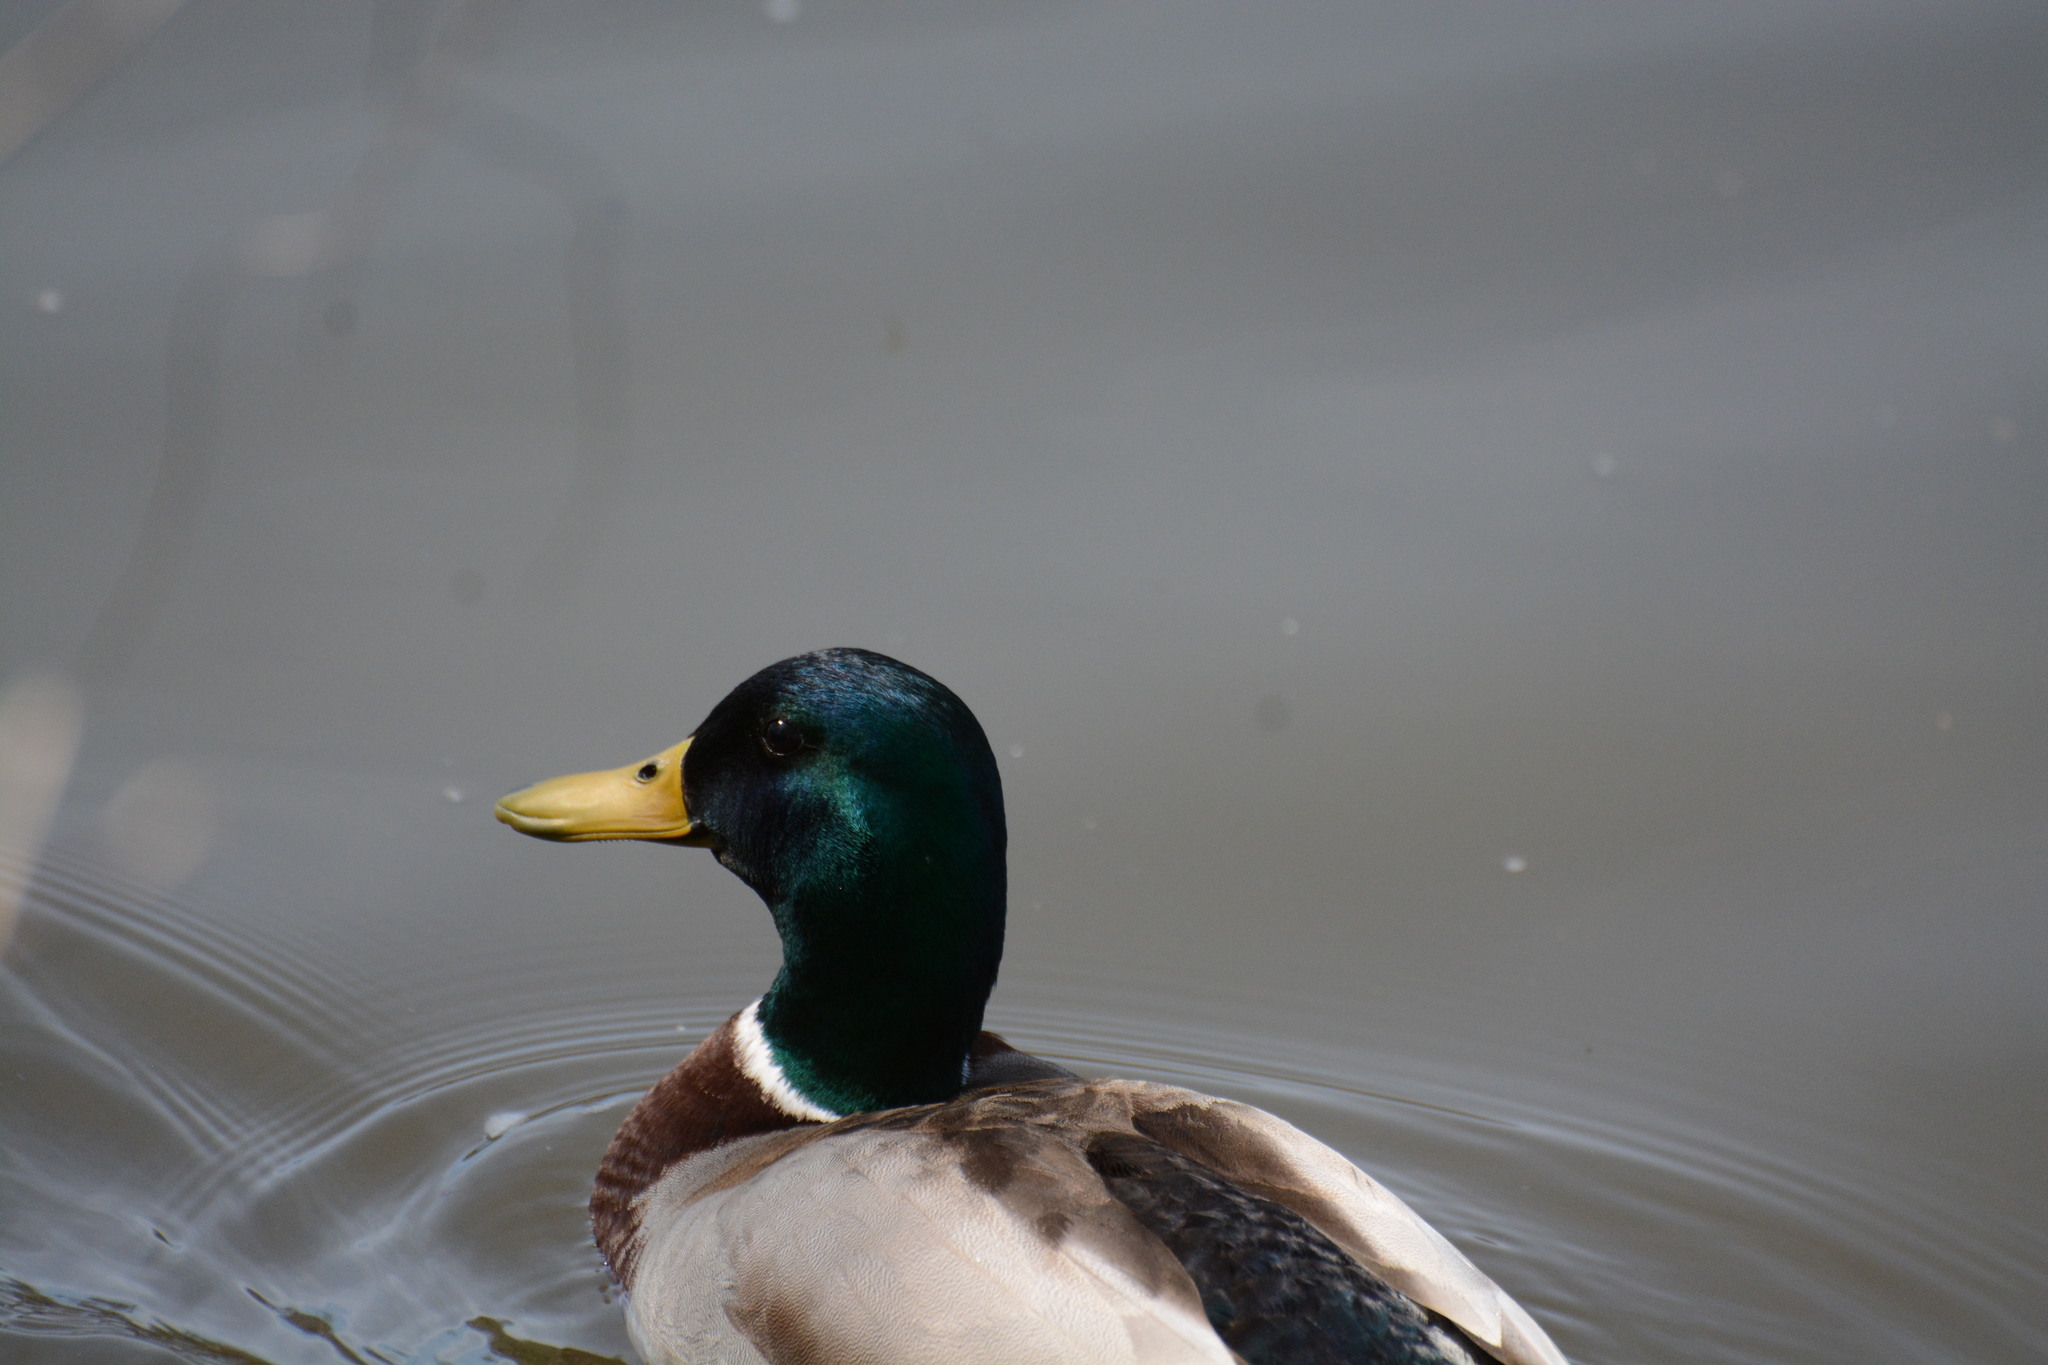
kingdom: Animalia
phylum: Chordata
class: Aves
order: Anseriformes
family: Anatidae
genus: Anas
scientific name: Anas platyrhynchos
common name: Mallard
